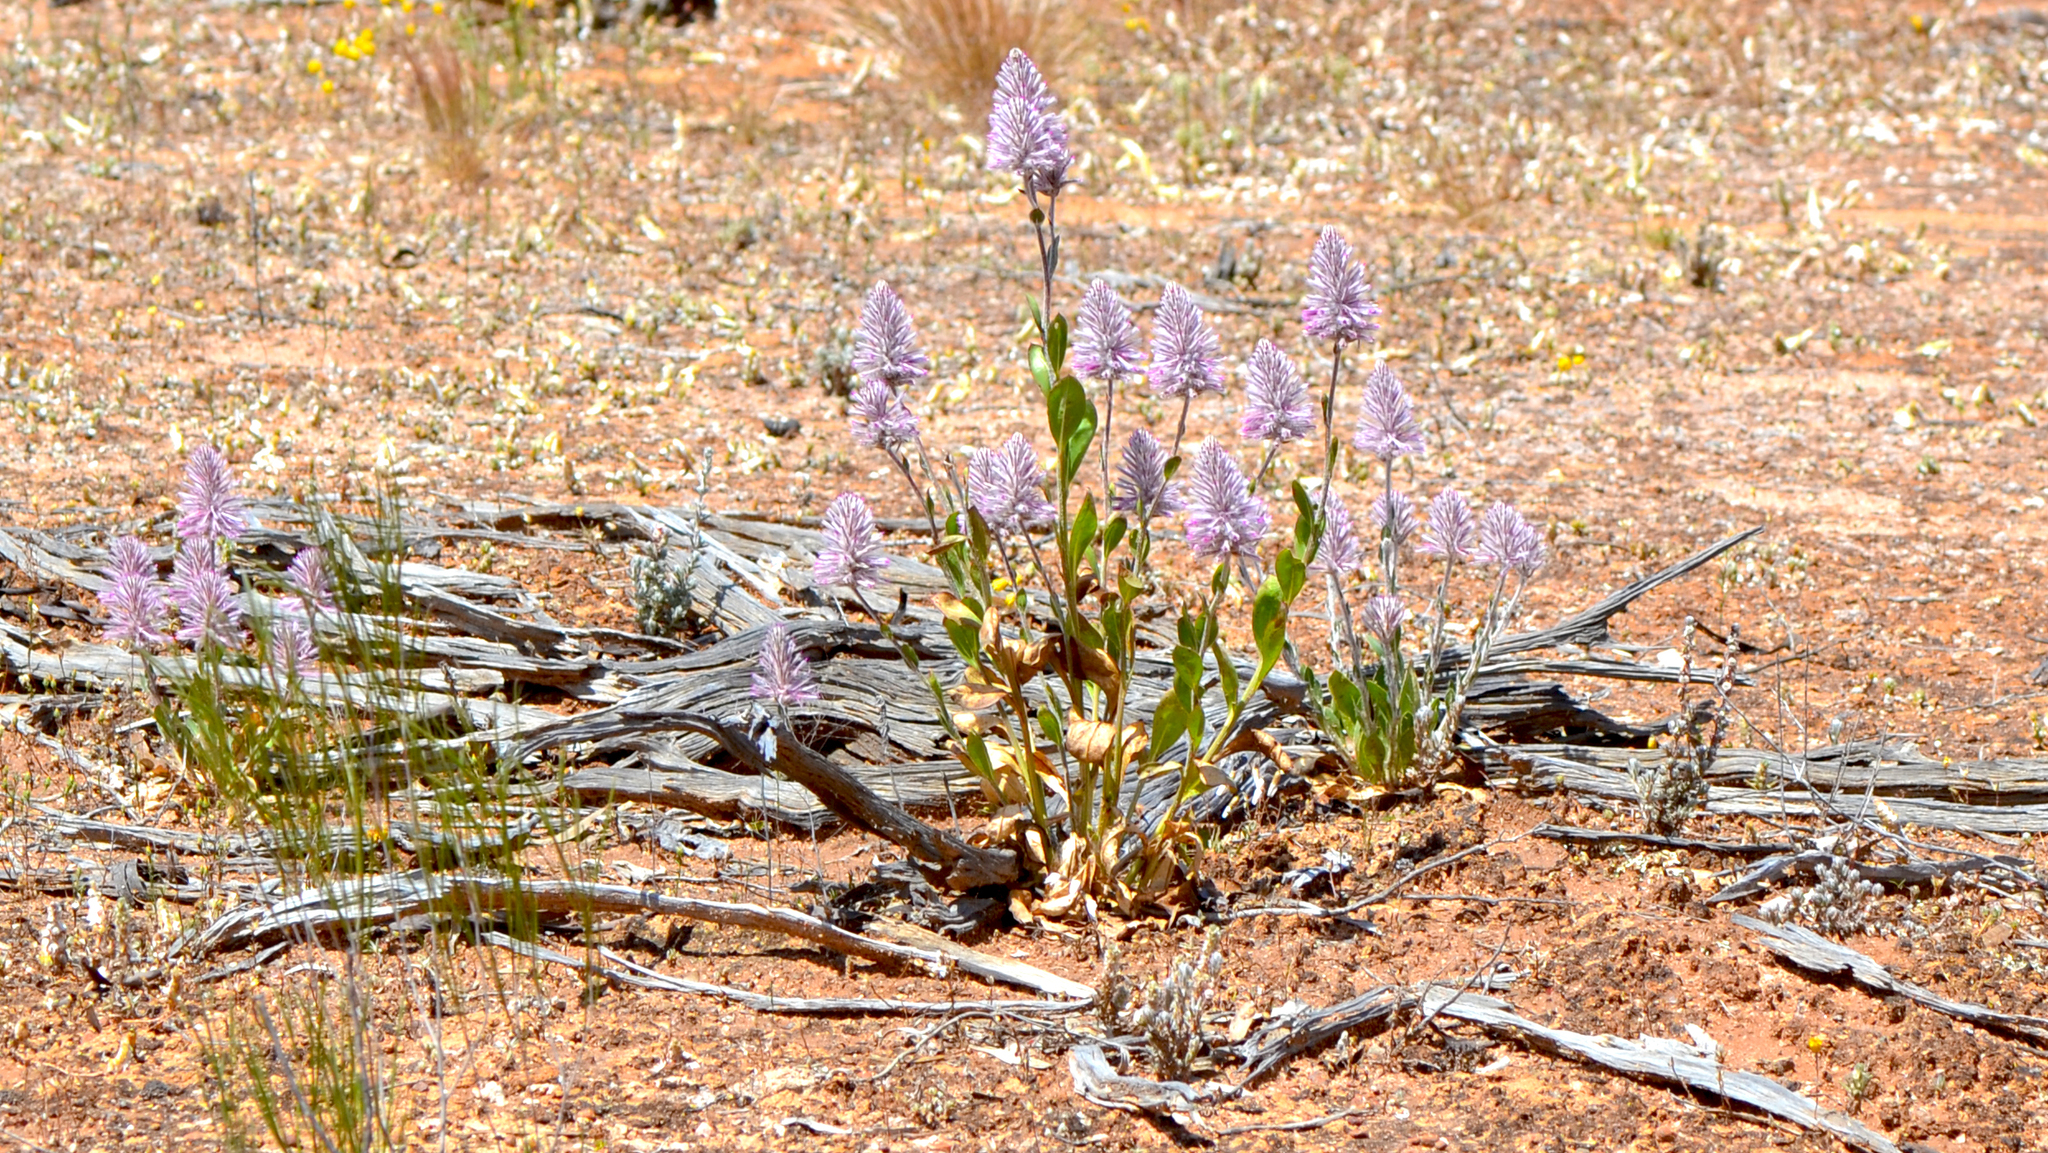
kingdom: Plantae
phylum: Tracheophyta
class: Magnoliopsida
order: Caryophyllales
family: Amaranthaceae
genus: Ptilotus
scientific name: Ptilotus exaltatus
